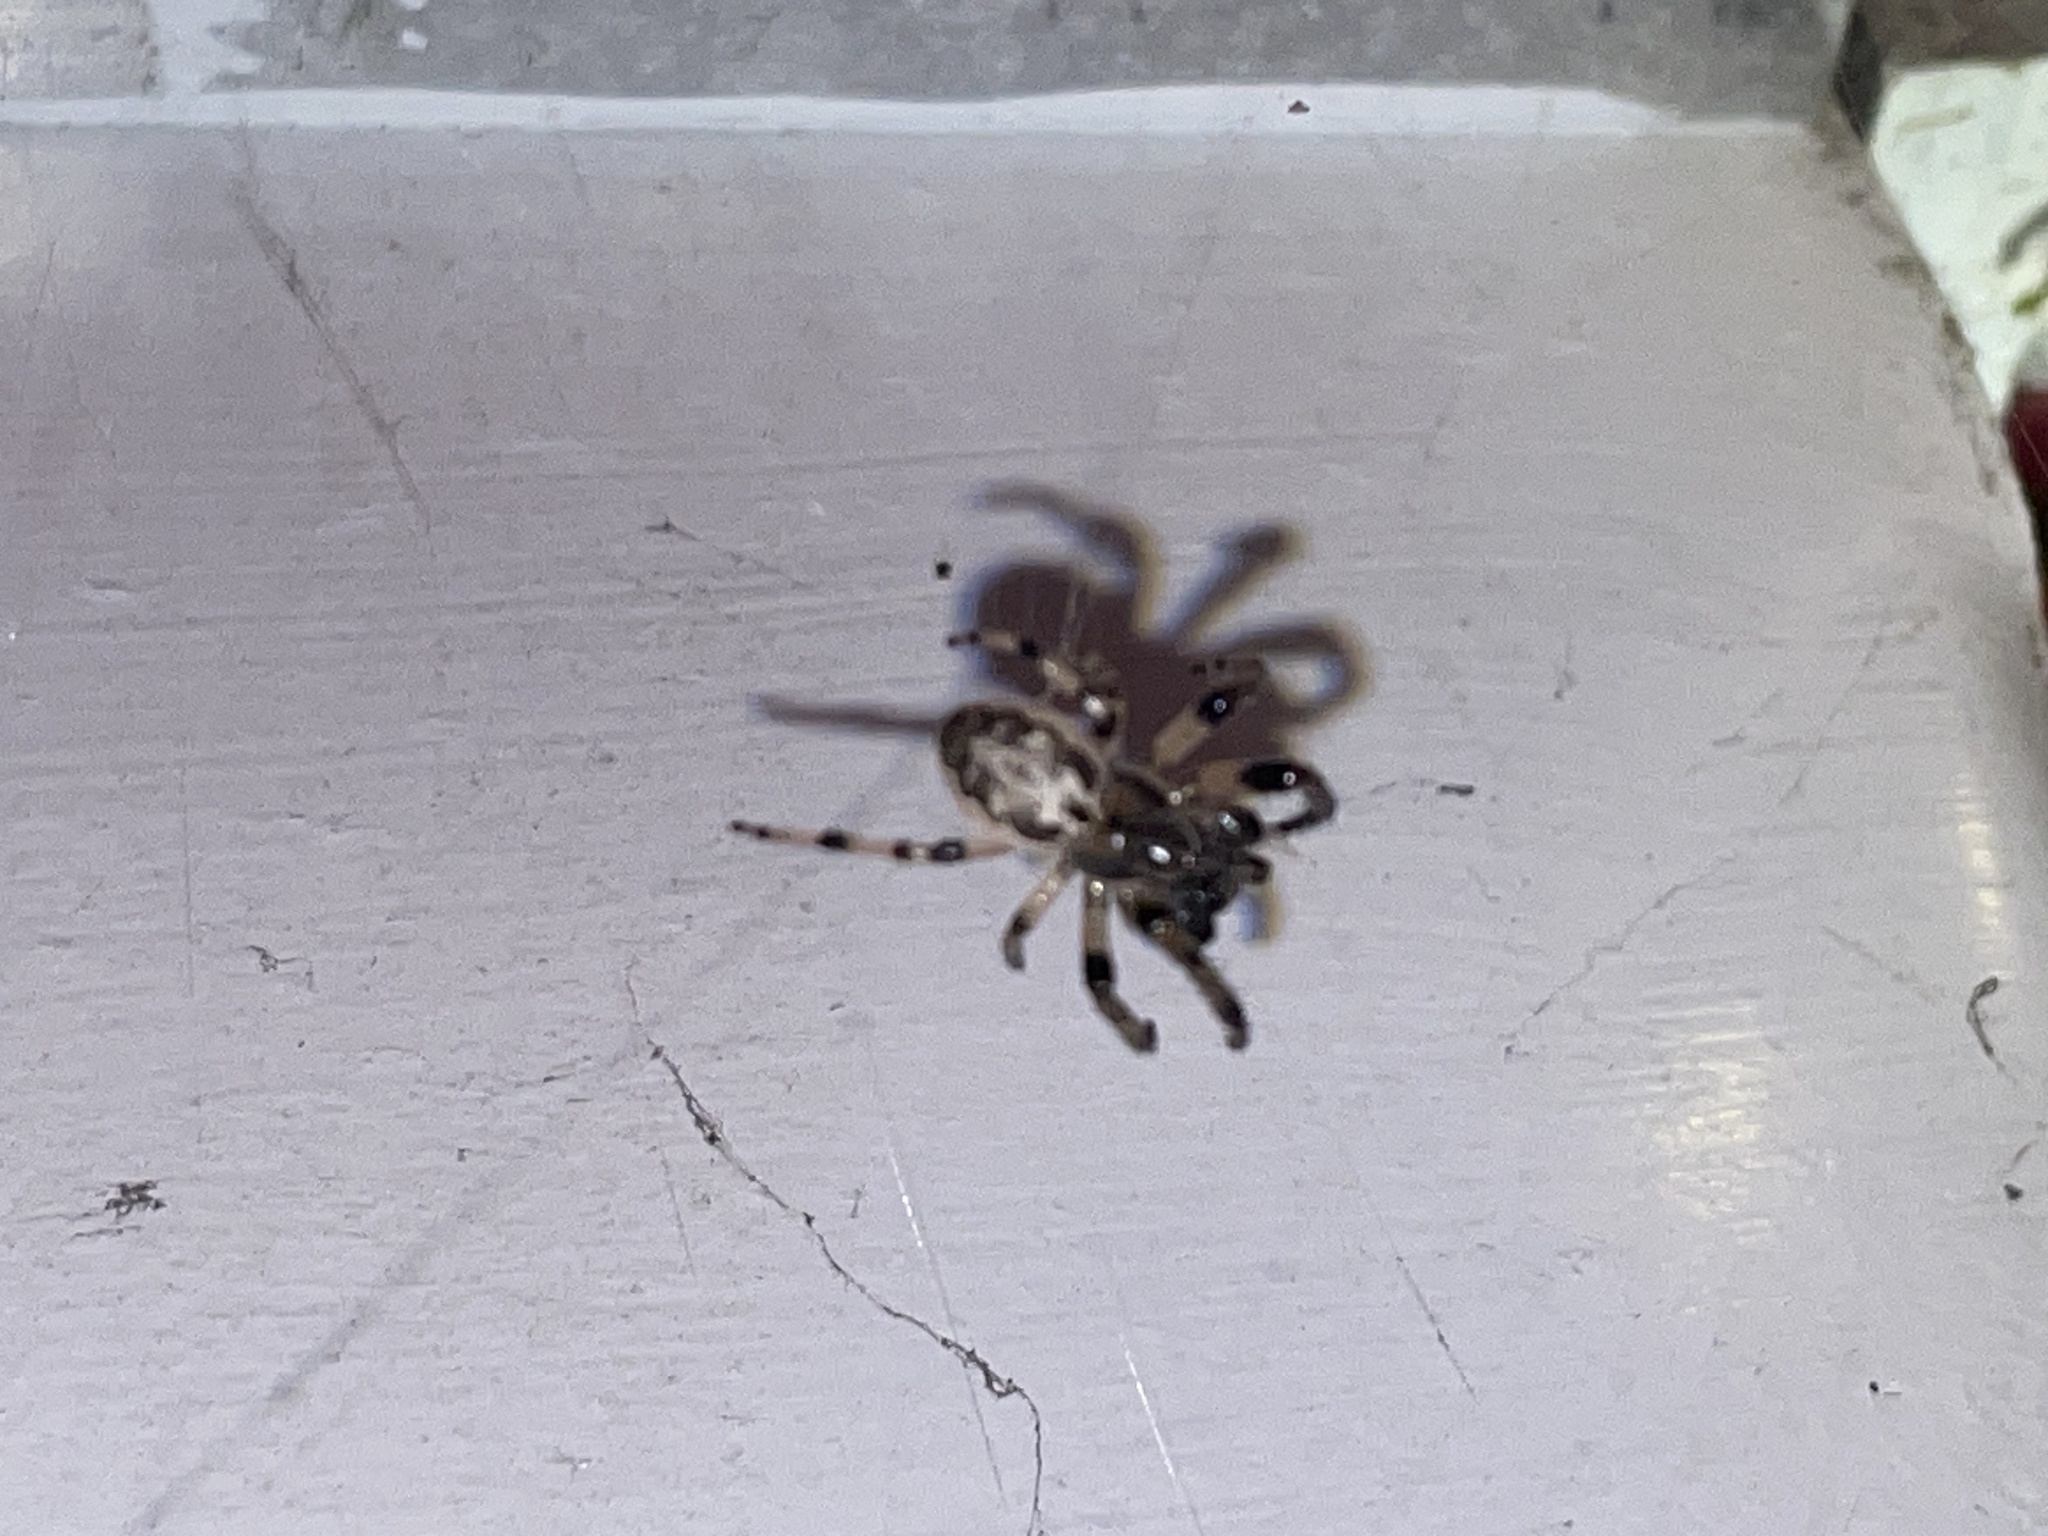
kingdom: Animalia
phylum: Arthropoda
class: Arachnida
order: Araneae
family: Araneidae
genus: Larinioides
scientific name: Larinioides cornutus
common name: Furrow orbweaver
